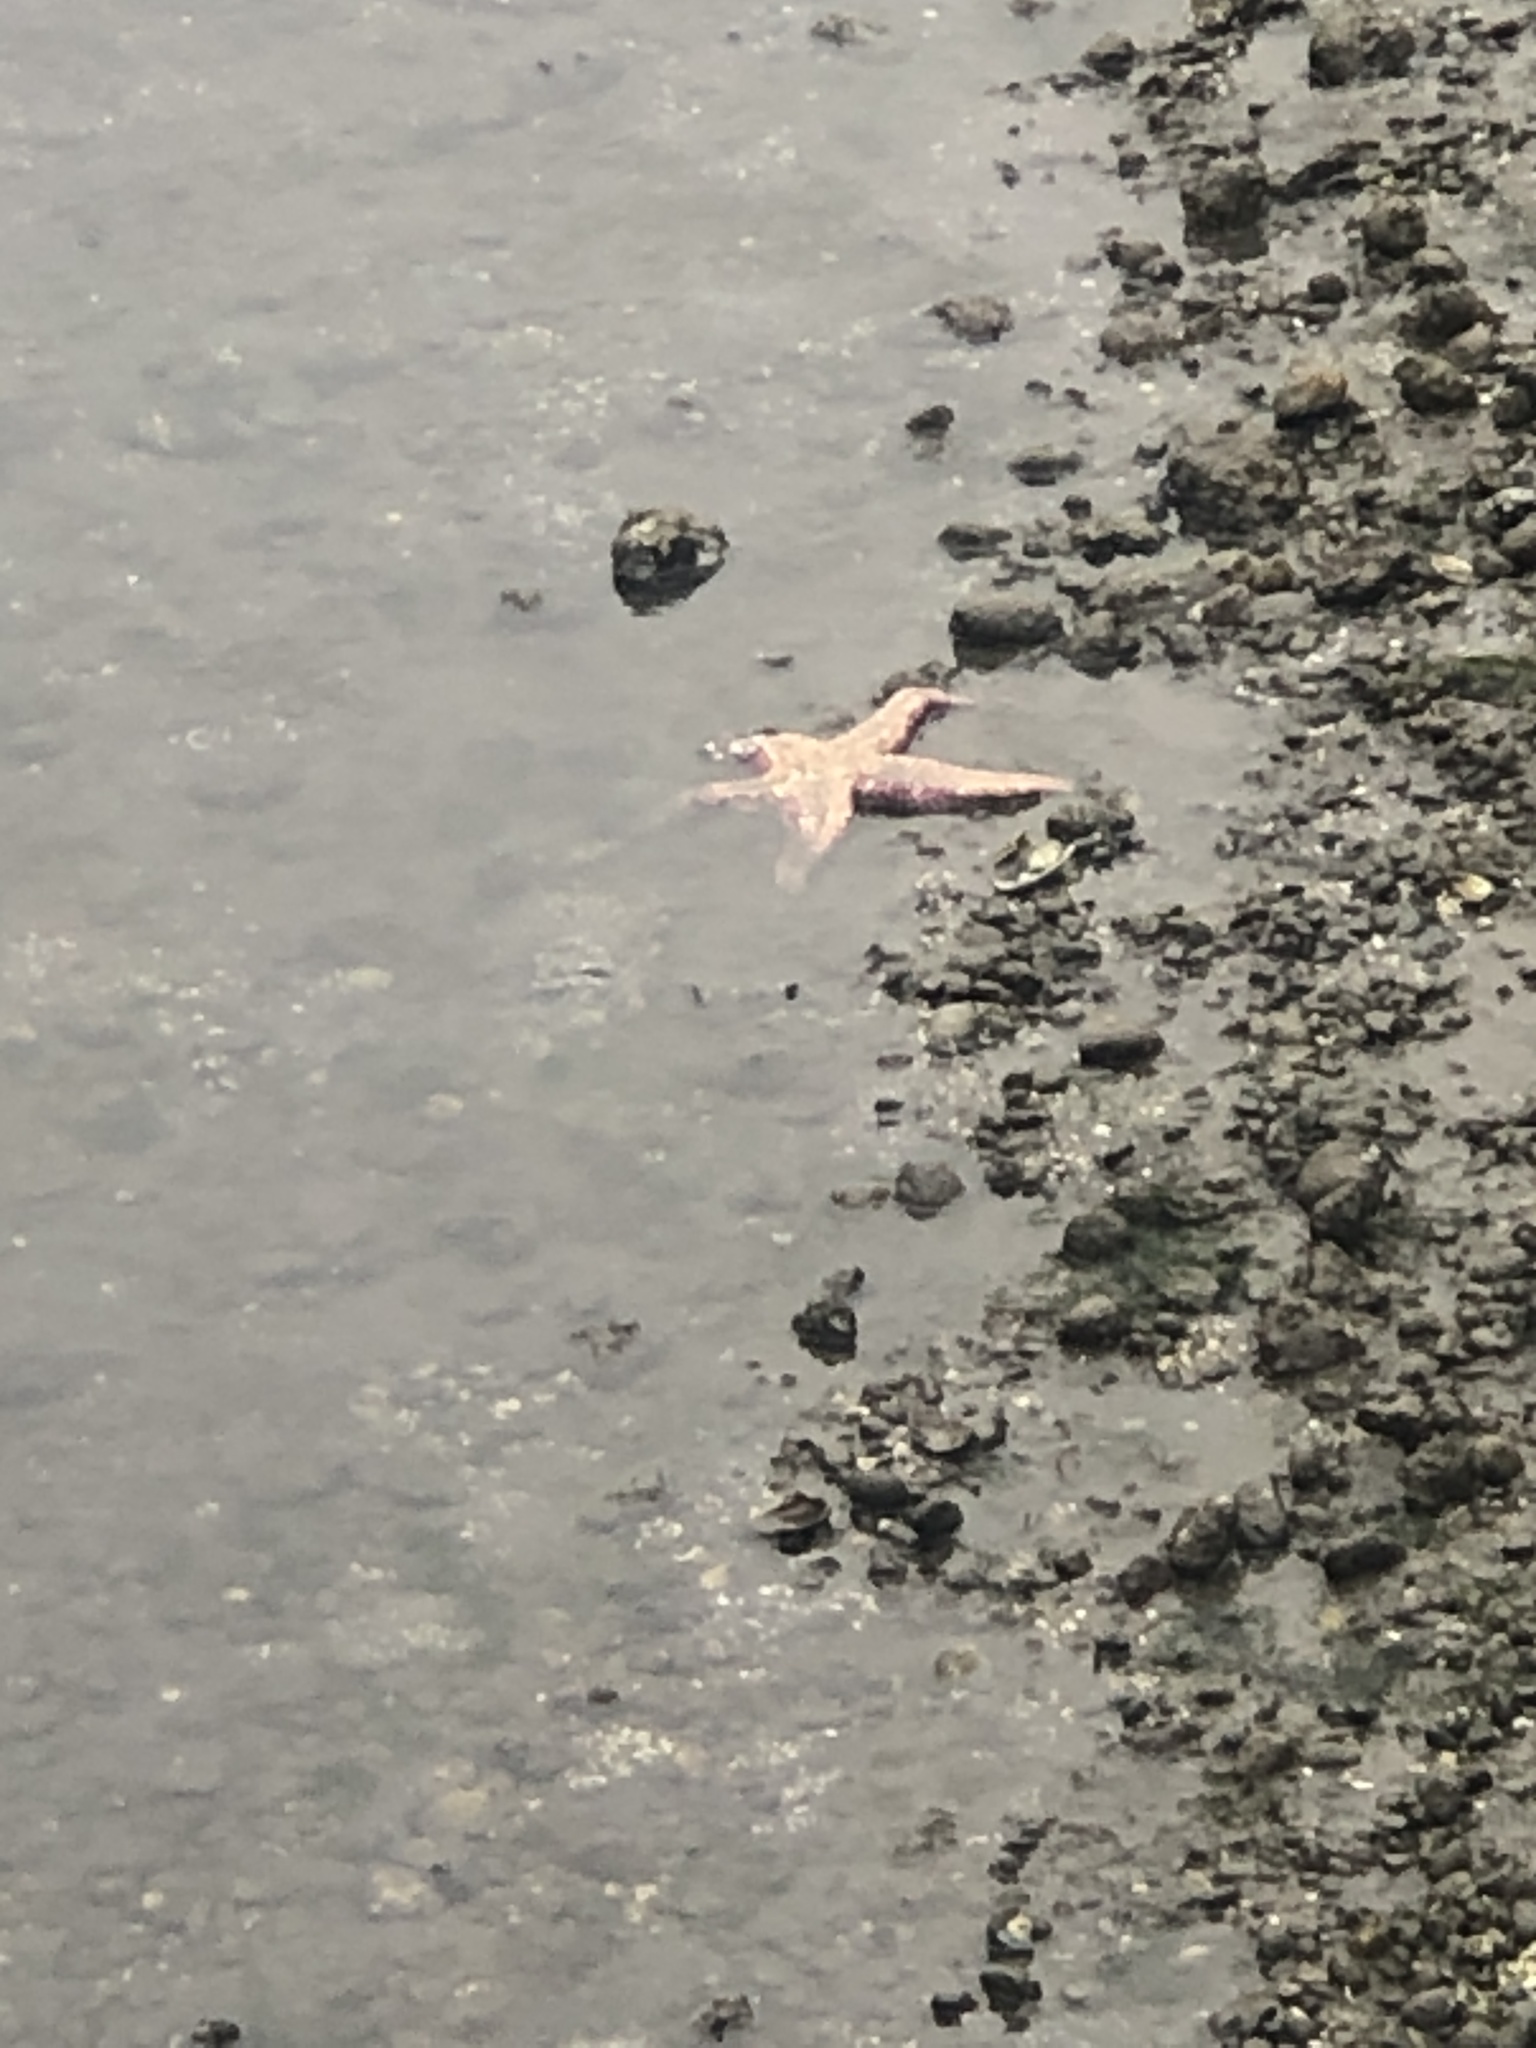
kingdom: Animalia
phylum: Echinodermata
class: Asteroidea
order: Forcipulatida
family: Asteriidae
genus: Pisaster
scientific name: Pisaster ochraceus
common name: Ochre stars
